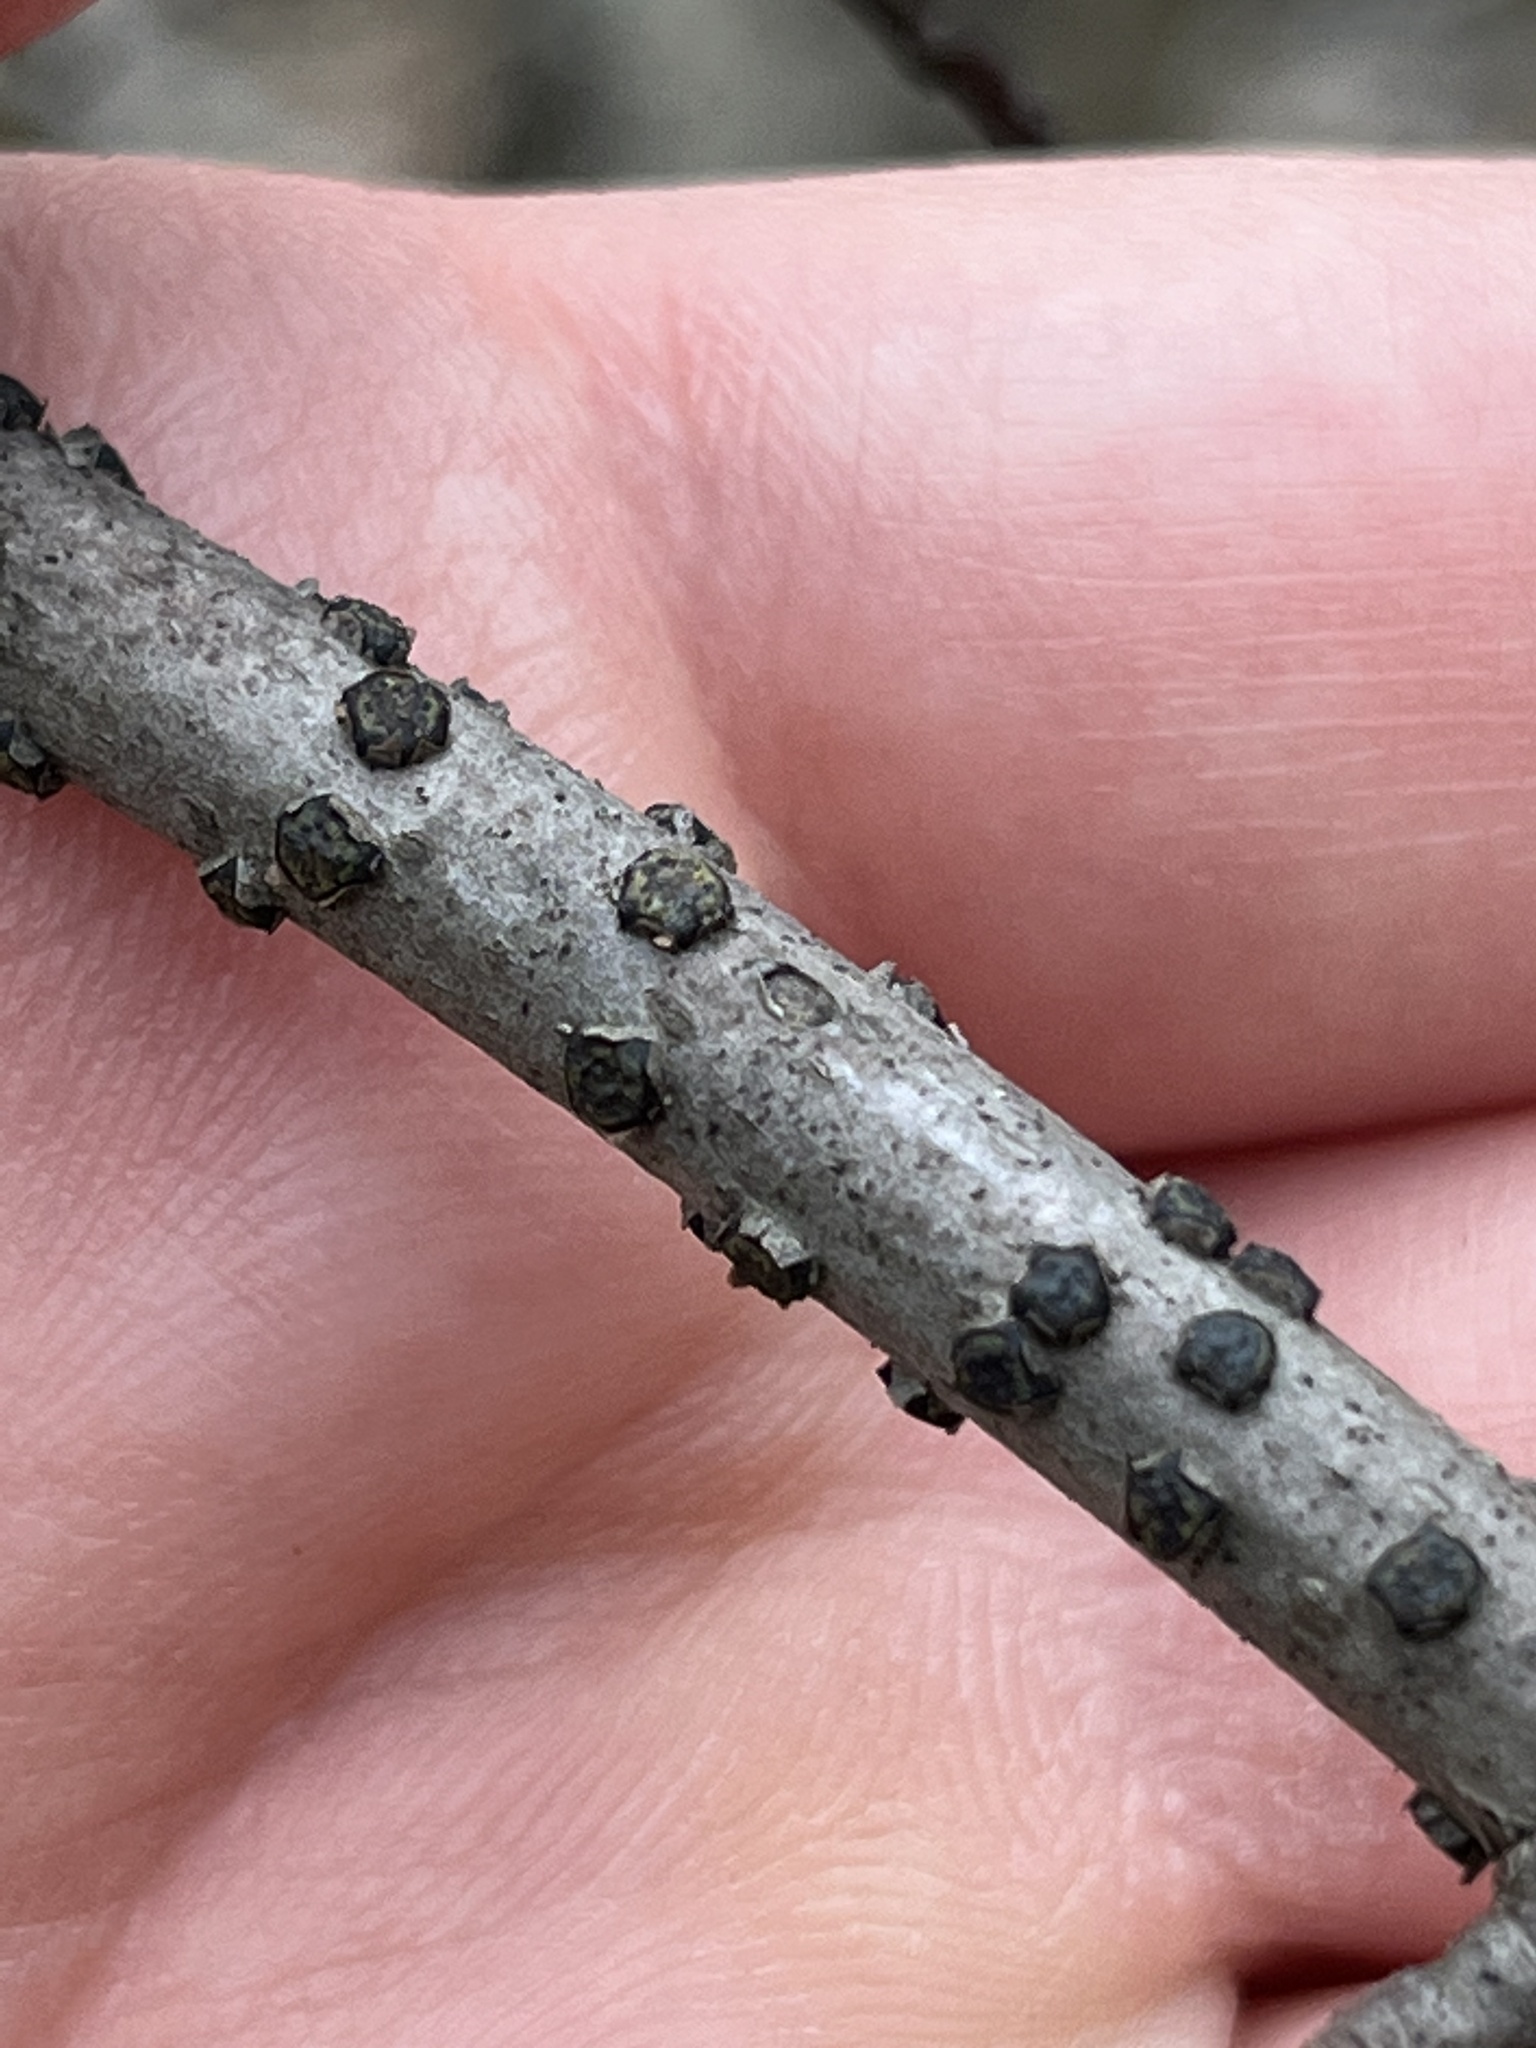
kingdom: Fungi
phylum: Ascomycota
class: Sordariomycetes
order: Xylariales
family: Diatrypaceae
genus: Diatrype
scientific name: Diatrype virescens
